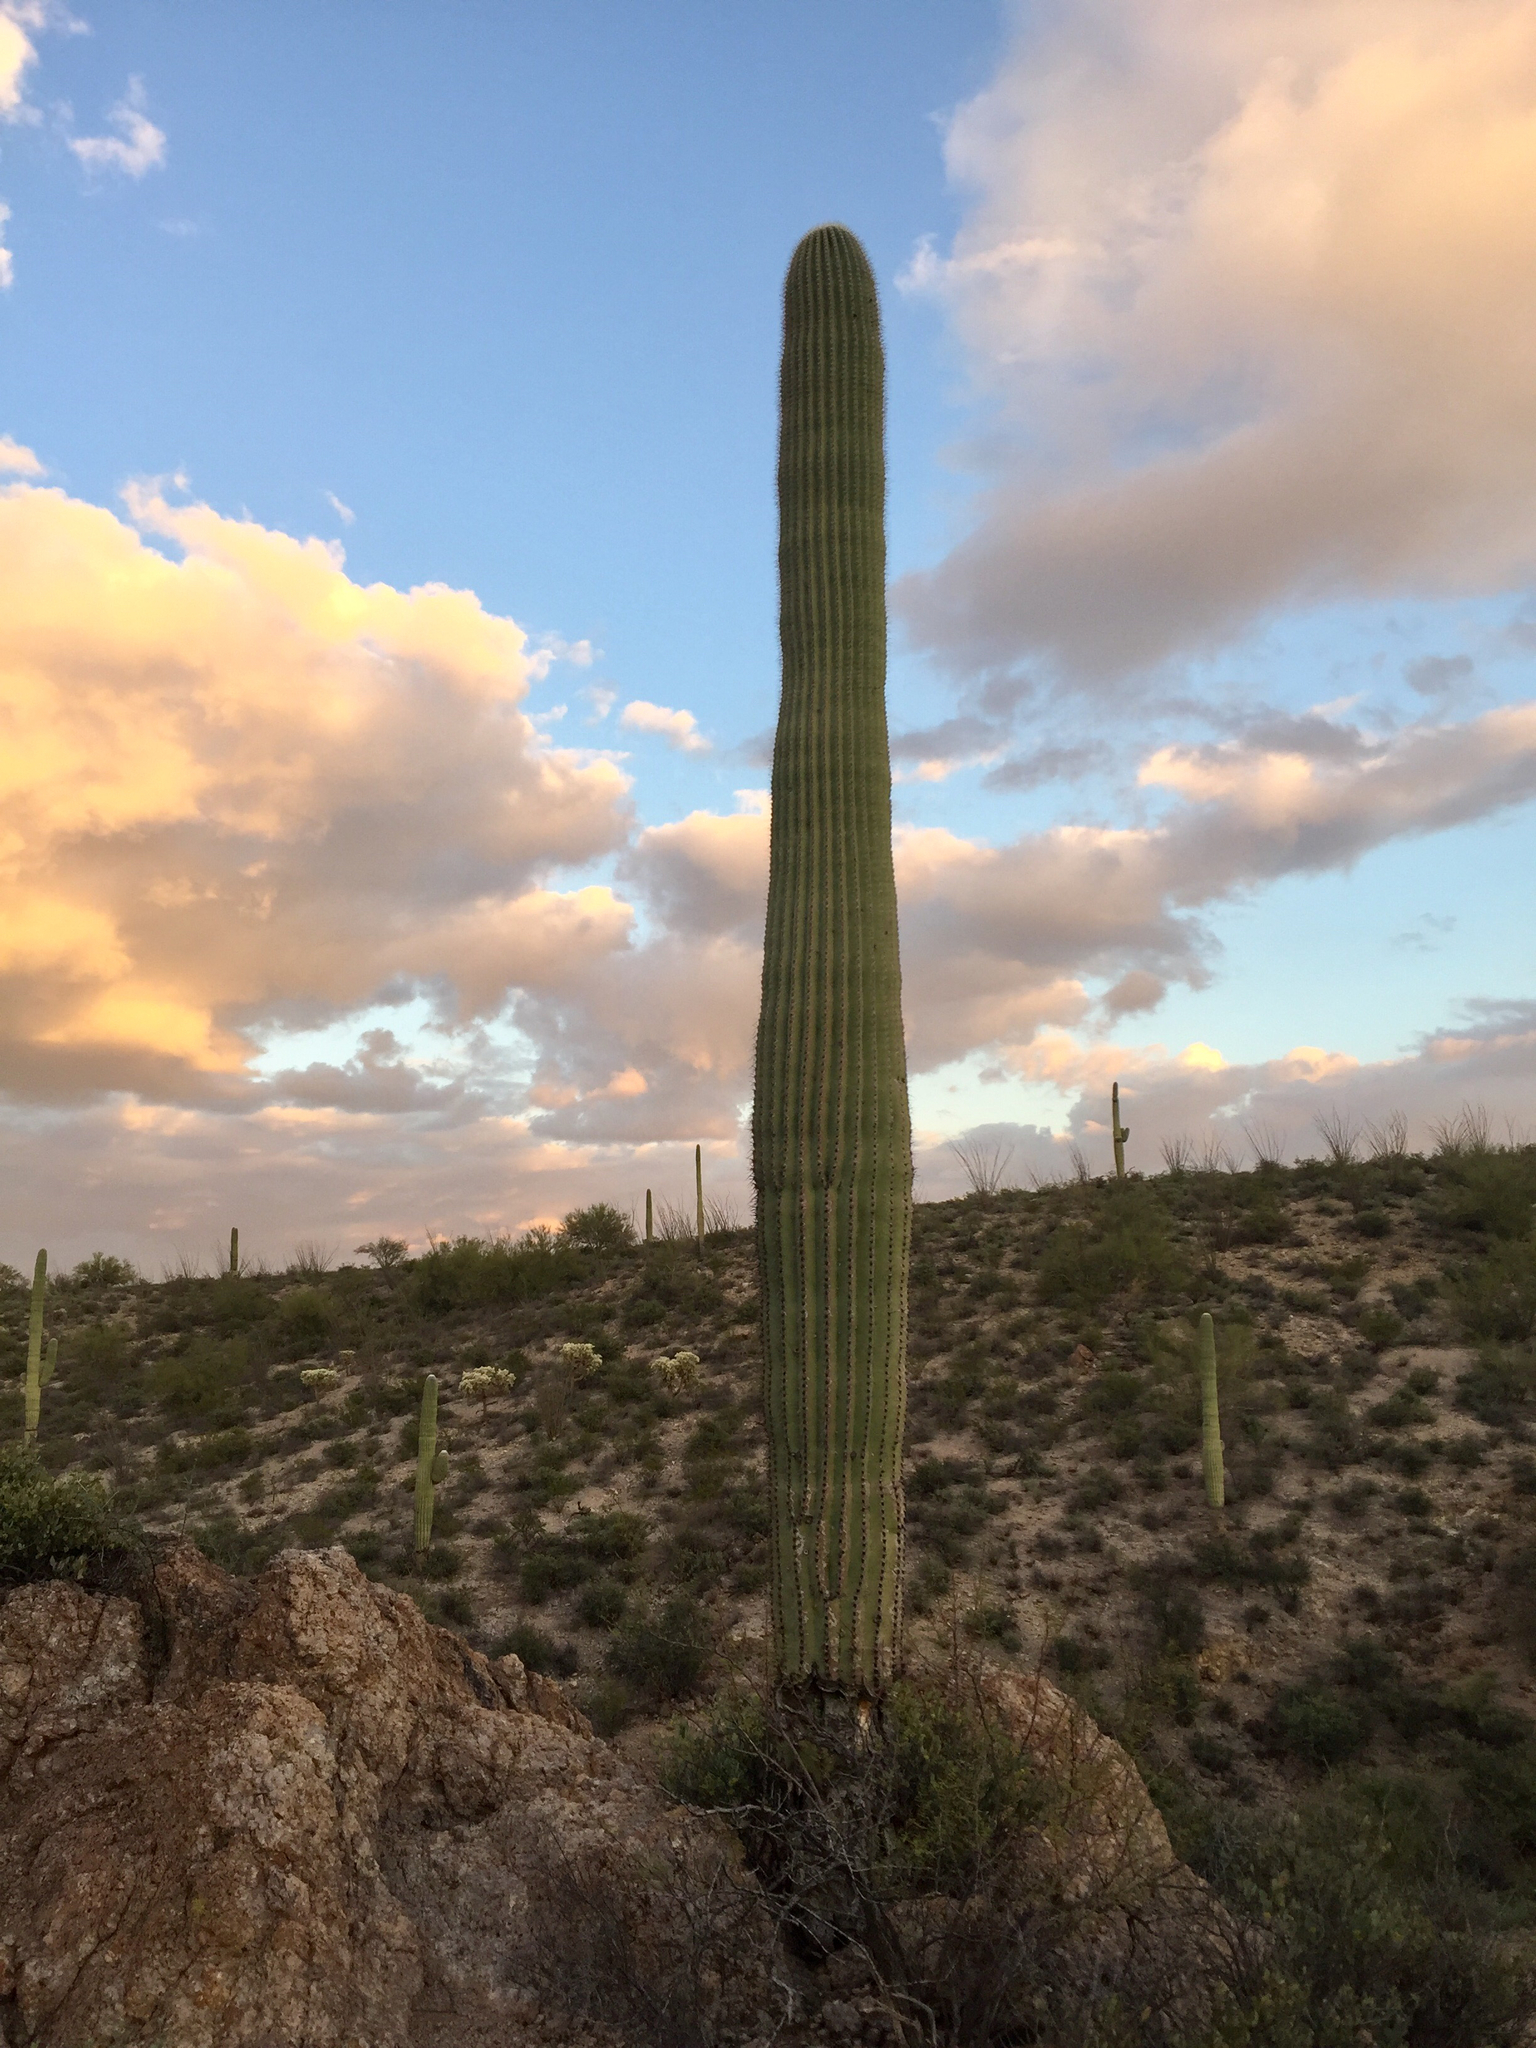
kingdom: Plantae
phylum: Tracheophyta
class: Magnoliopsida
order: Caryophyllales
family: Cactaceae
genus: Carnegiea
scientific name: Carnegiea gigantea
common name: Saguaro
